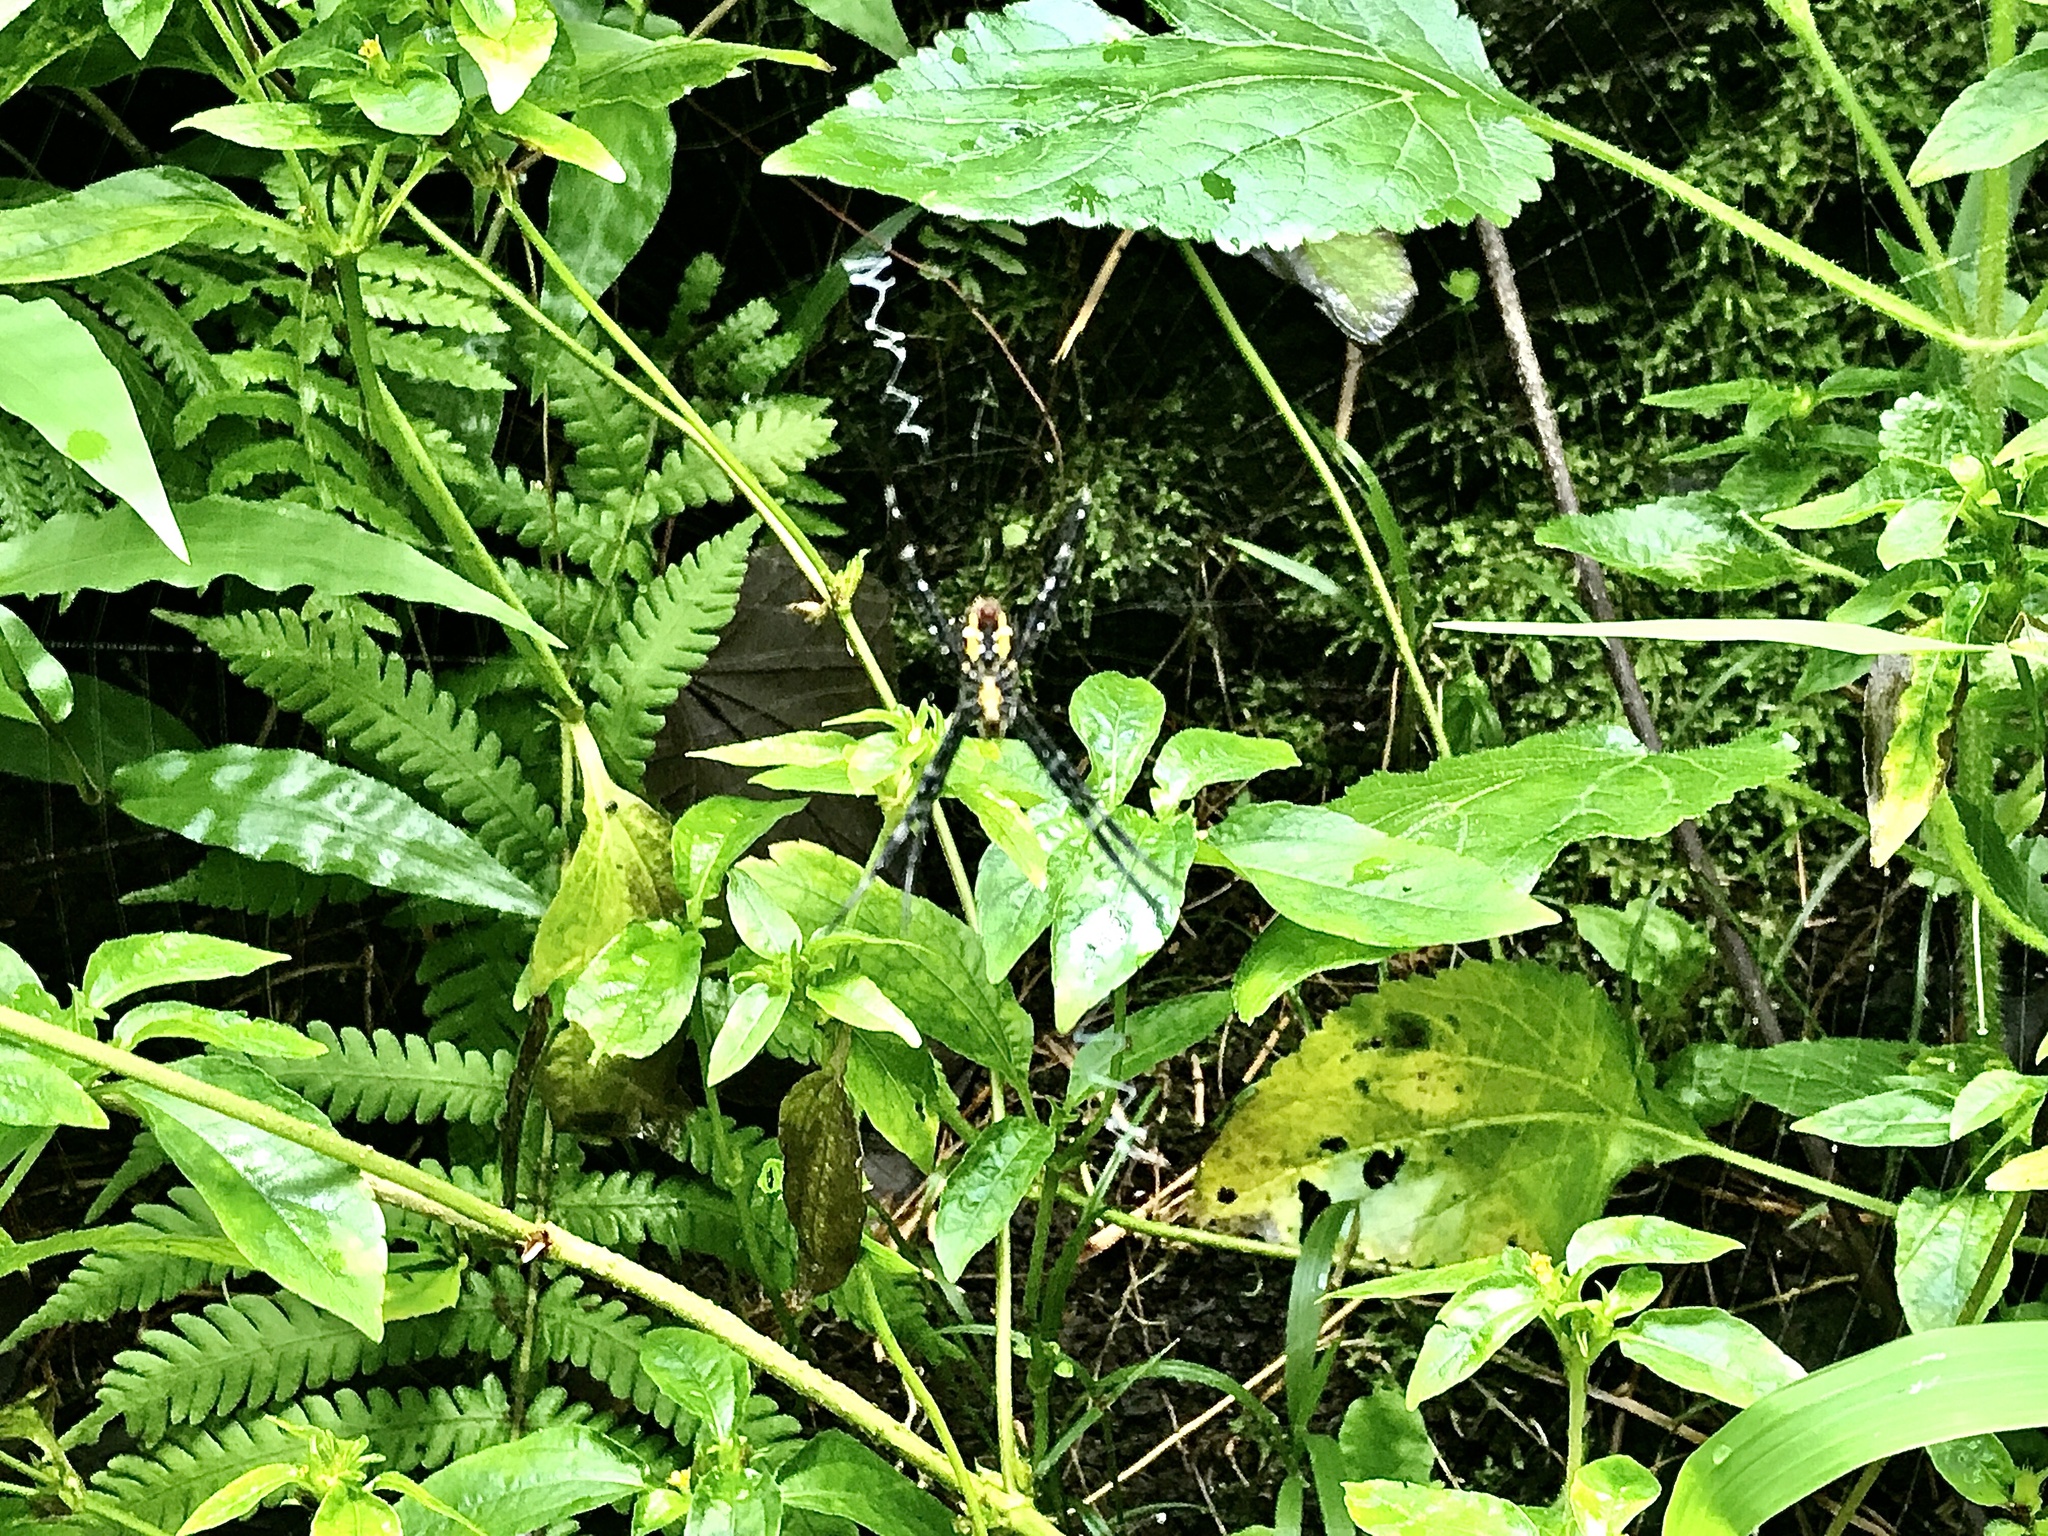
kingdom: Animalia
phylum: Arthropoda
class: Arachnida
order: Araneae
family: Araneidae
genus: Argiope
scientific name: Argiope appensa
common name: Garden spider
